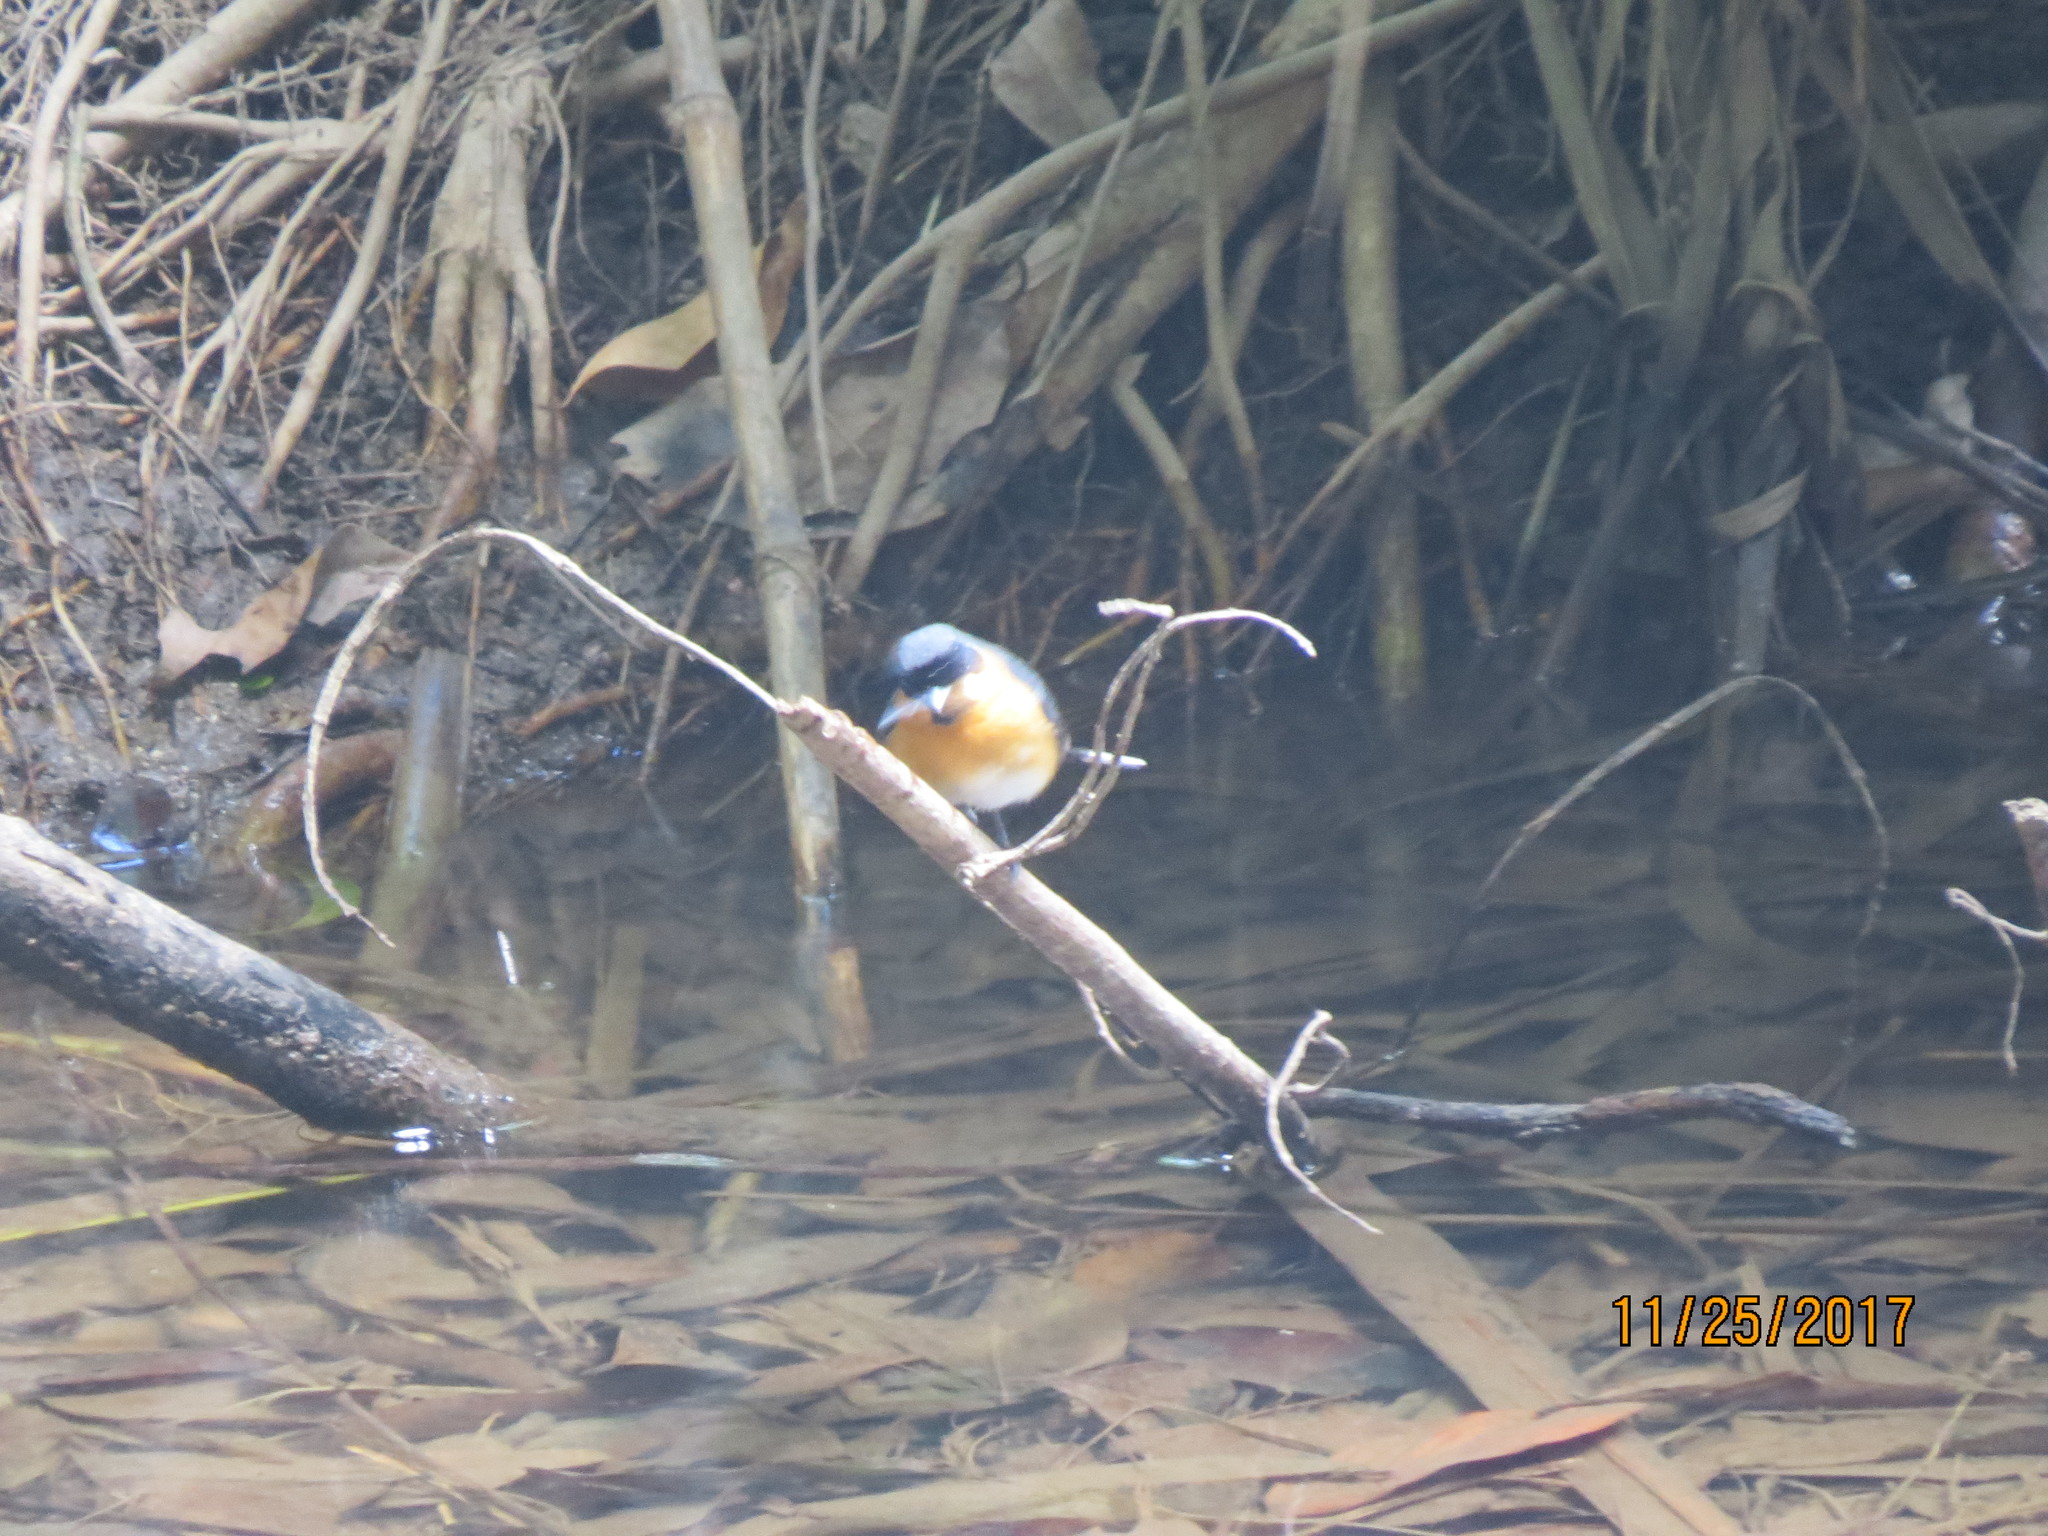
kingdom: Animalia
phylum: Chordata
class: Aves
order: Passeriformes
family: Monarchidae
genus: Symposiachrus
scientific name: Symposiachrus trivirgatus
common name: Spectacled monarch
